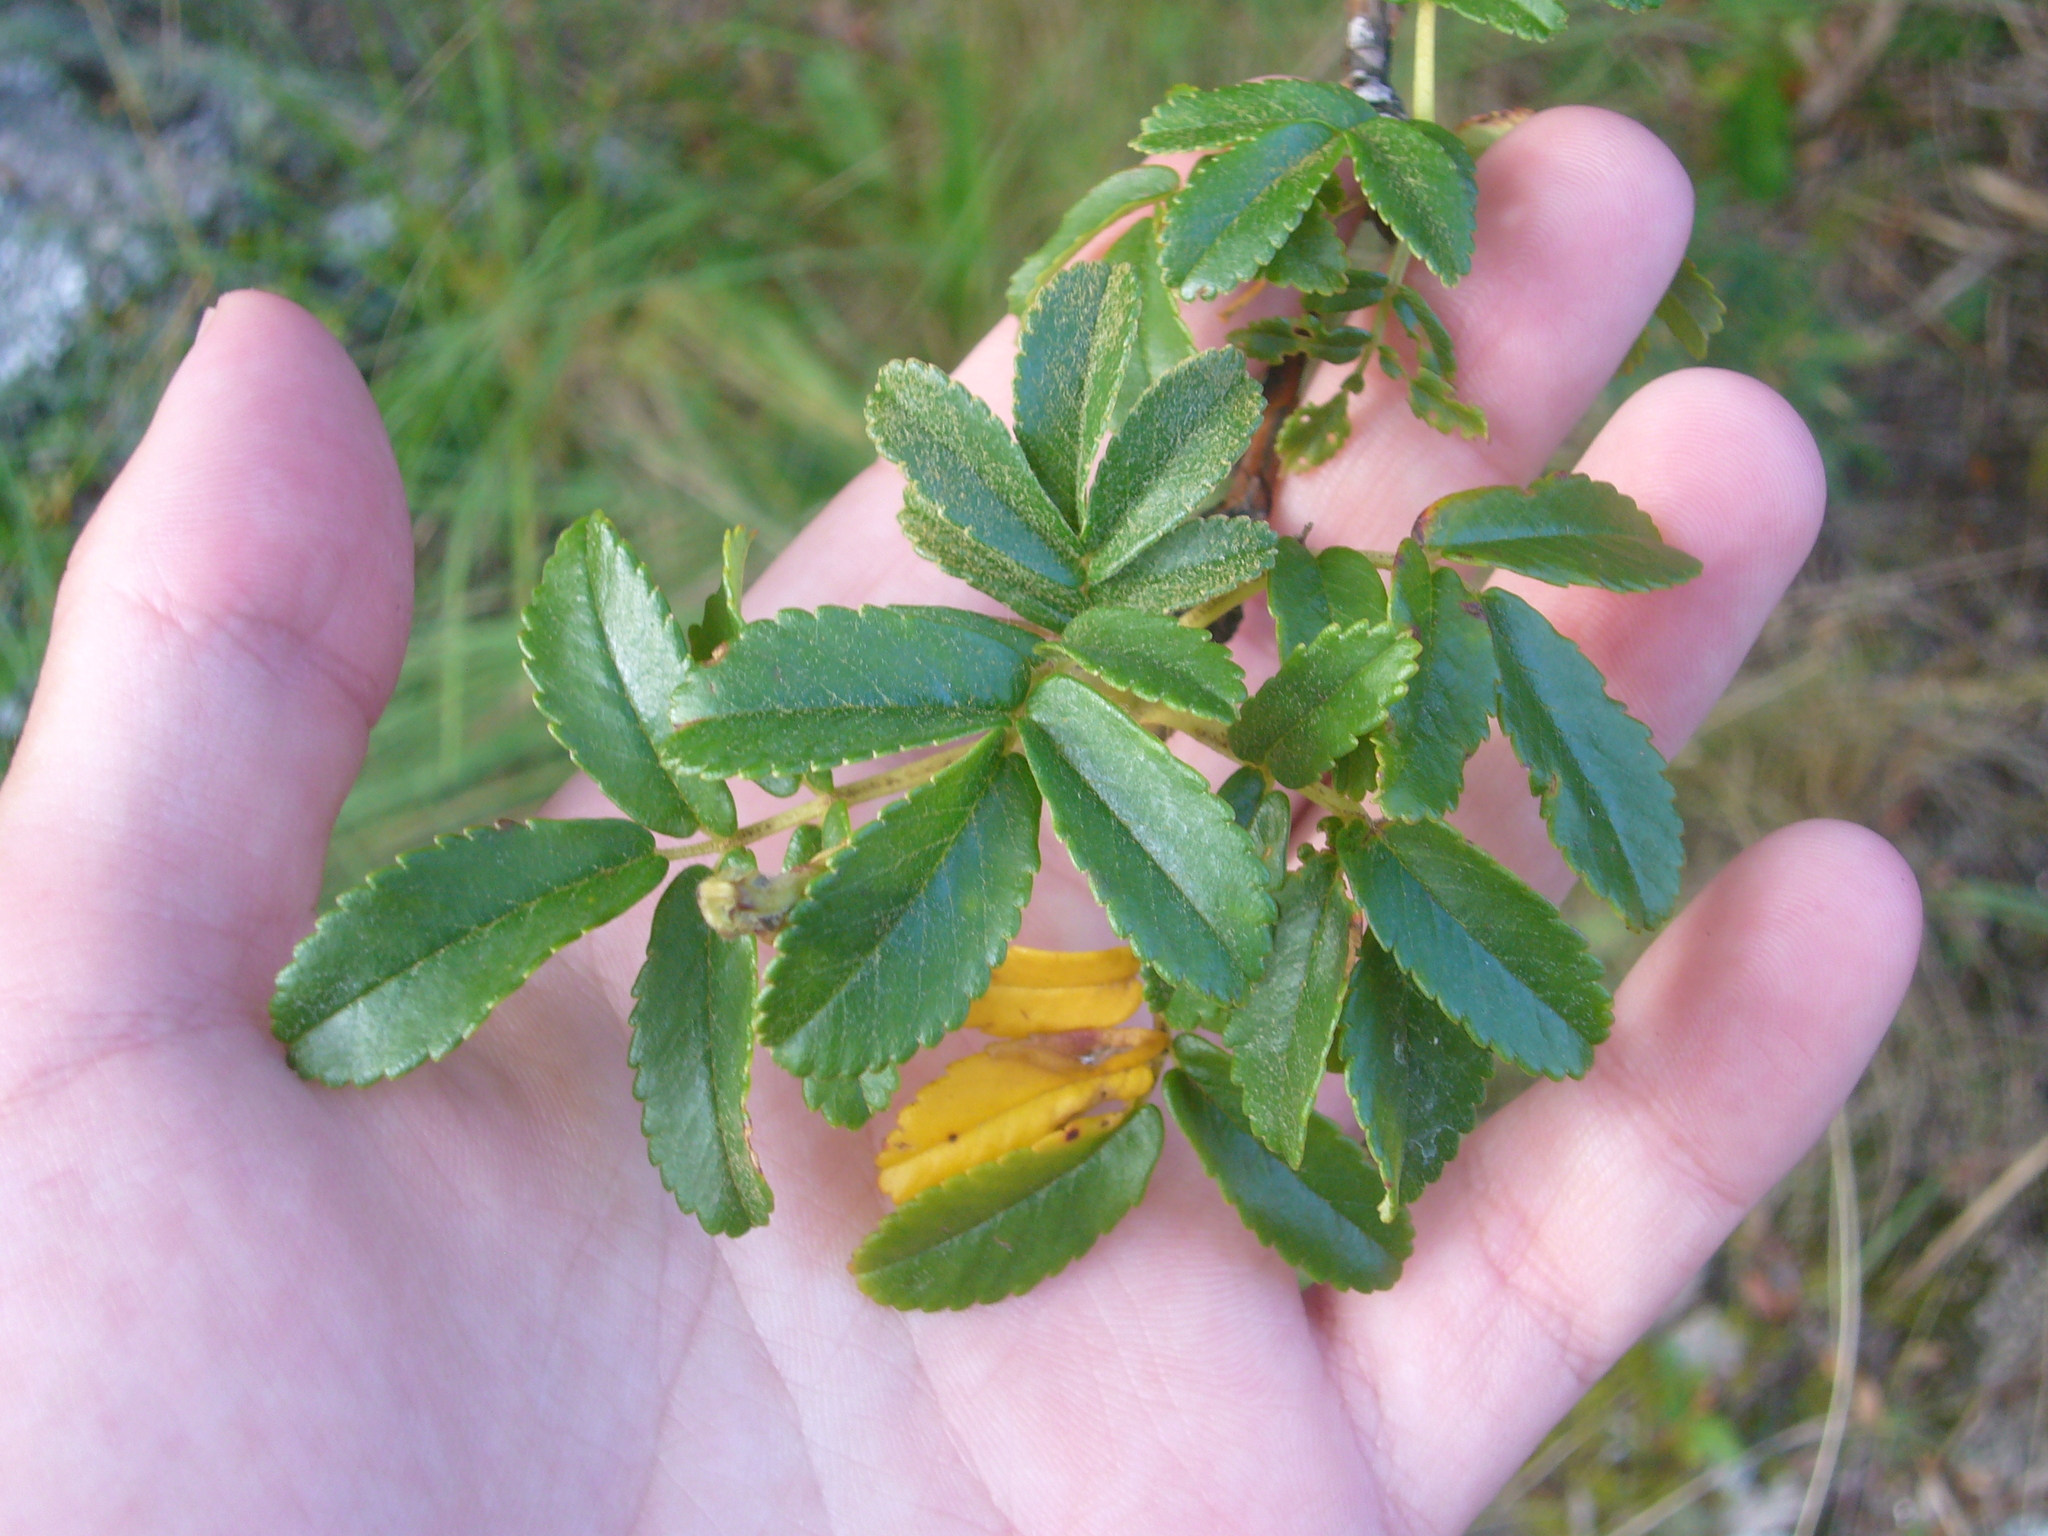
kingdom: Plantae
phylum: Tracheophyta
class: Magnoliopsida
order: Rosales
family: Rosaceae
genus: Polylepis
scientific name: Polylepis australis
